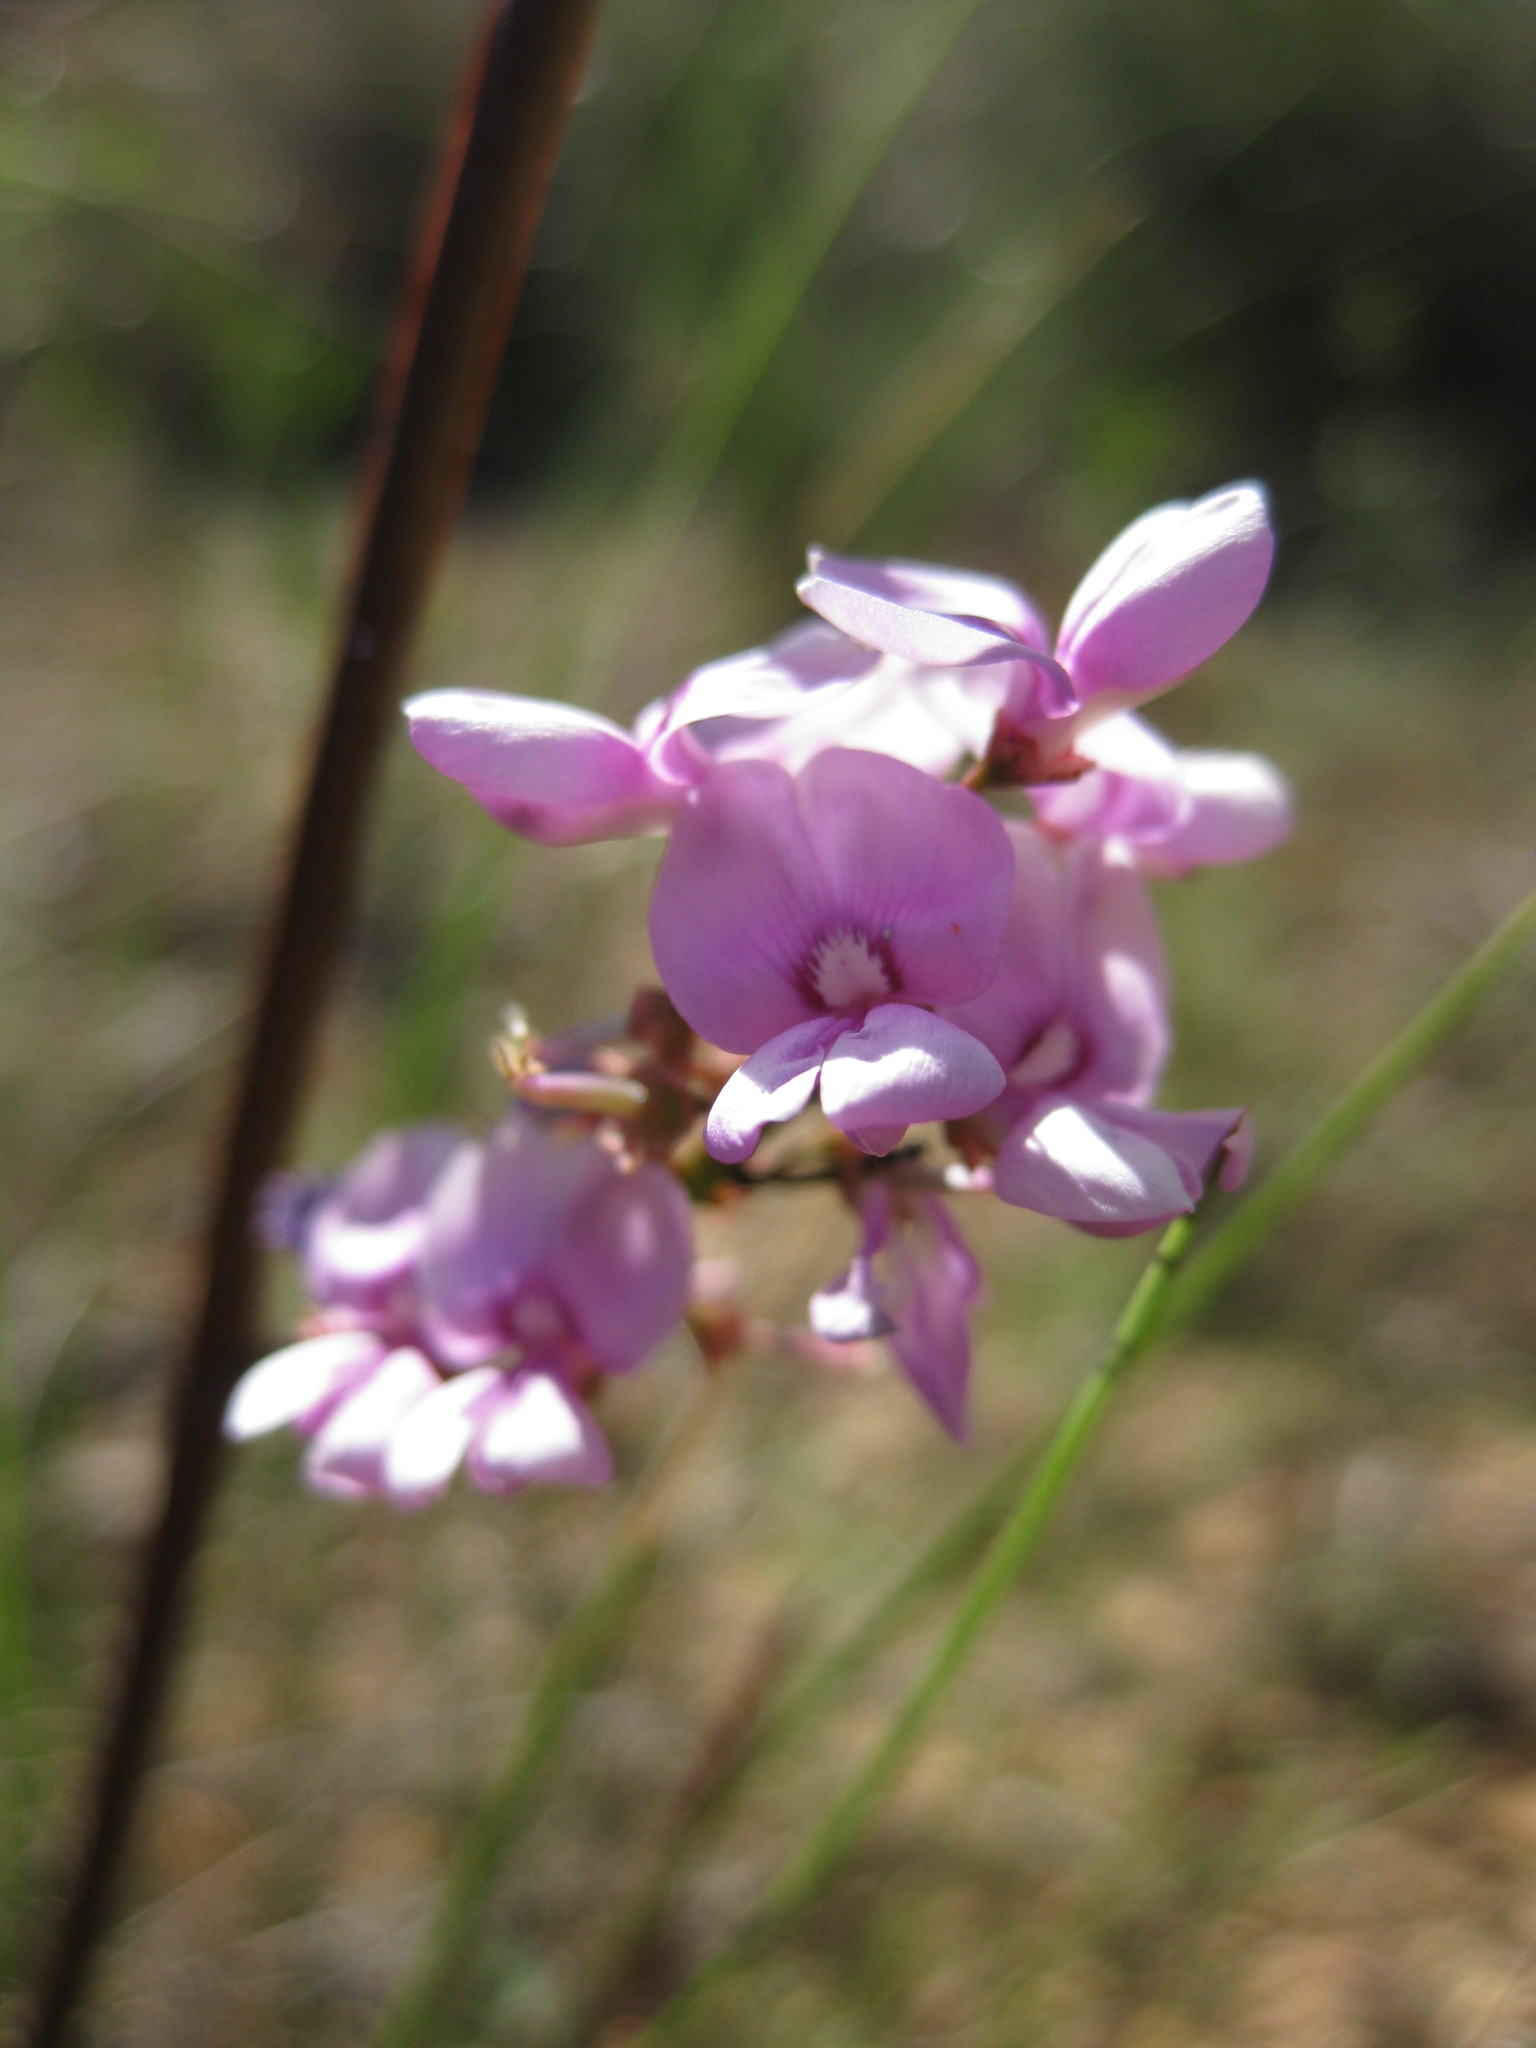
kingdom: Plantae
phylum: Tracheophyta
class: Magnoliopsida
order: Fabales
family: Fabaceae
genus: Indigofera
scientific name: Indigofera australis
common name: Australian indigo
